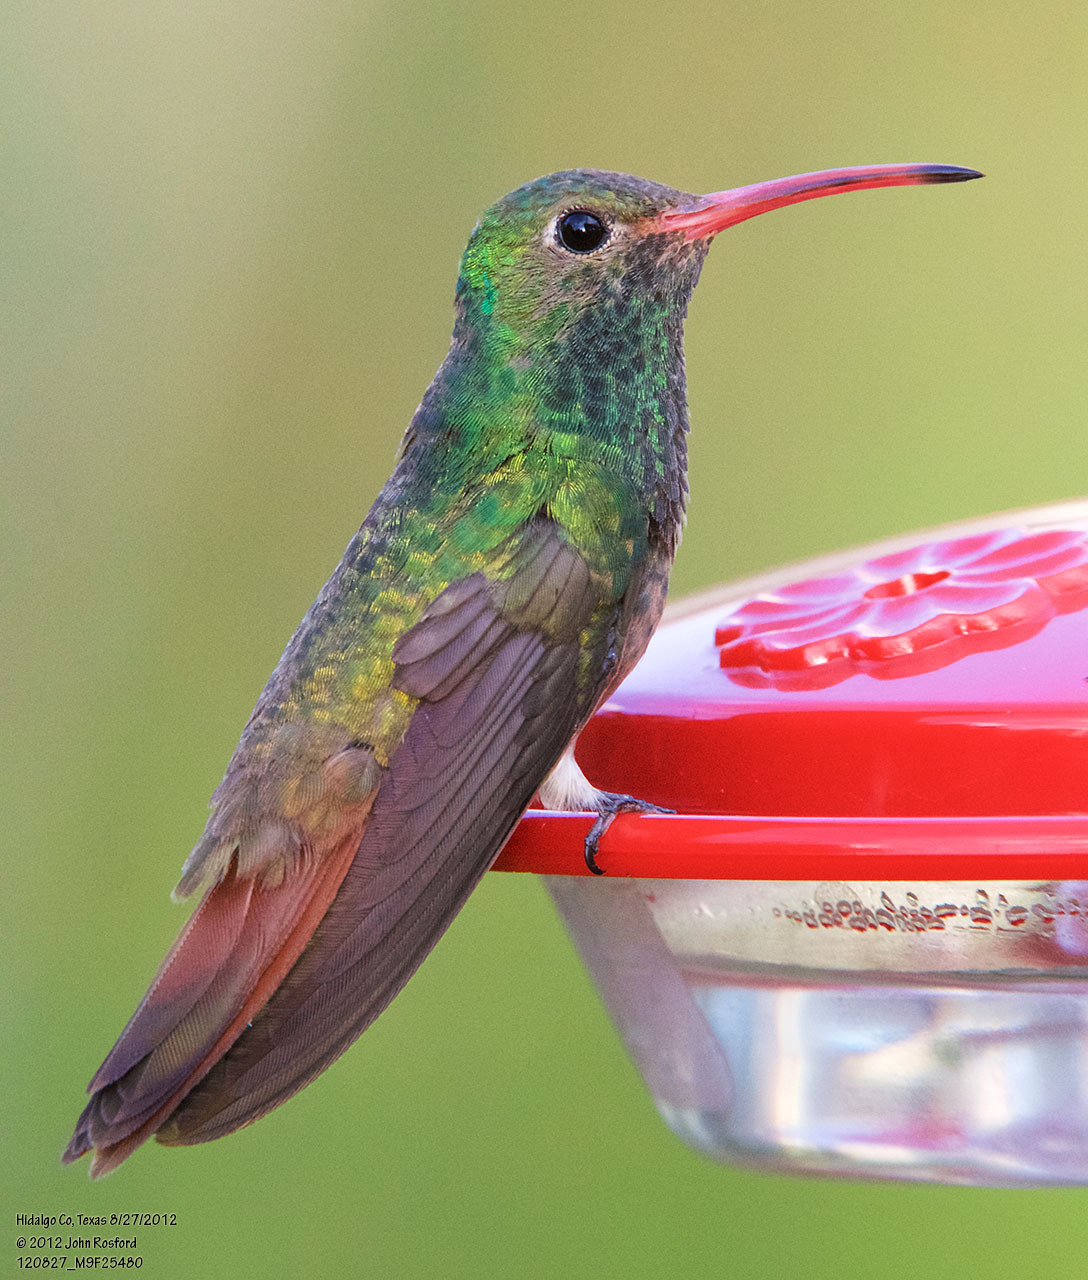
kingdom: Animalia
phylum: Chordata
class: Aves
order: Apodiformes
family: Trochilidae
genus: Amazilia
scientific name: Amazilia yucatanensis
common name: Buff-bellied hummingbird
